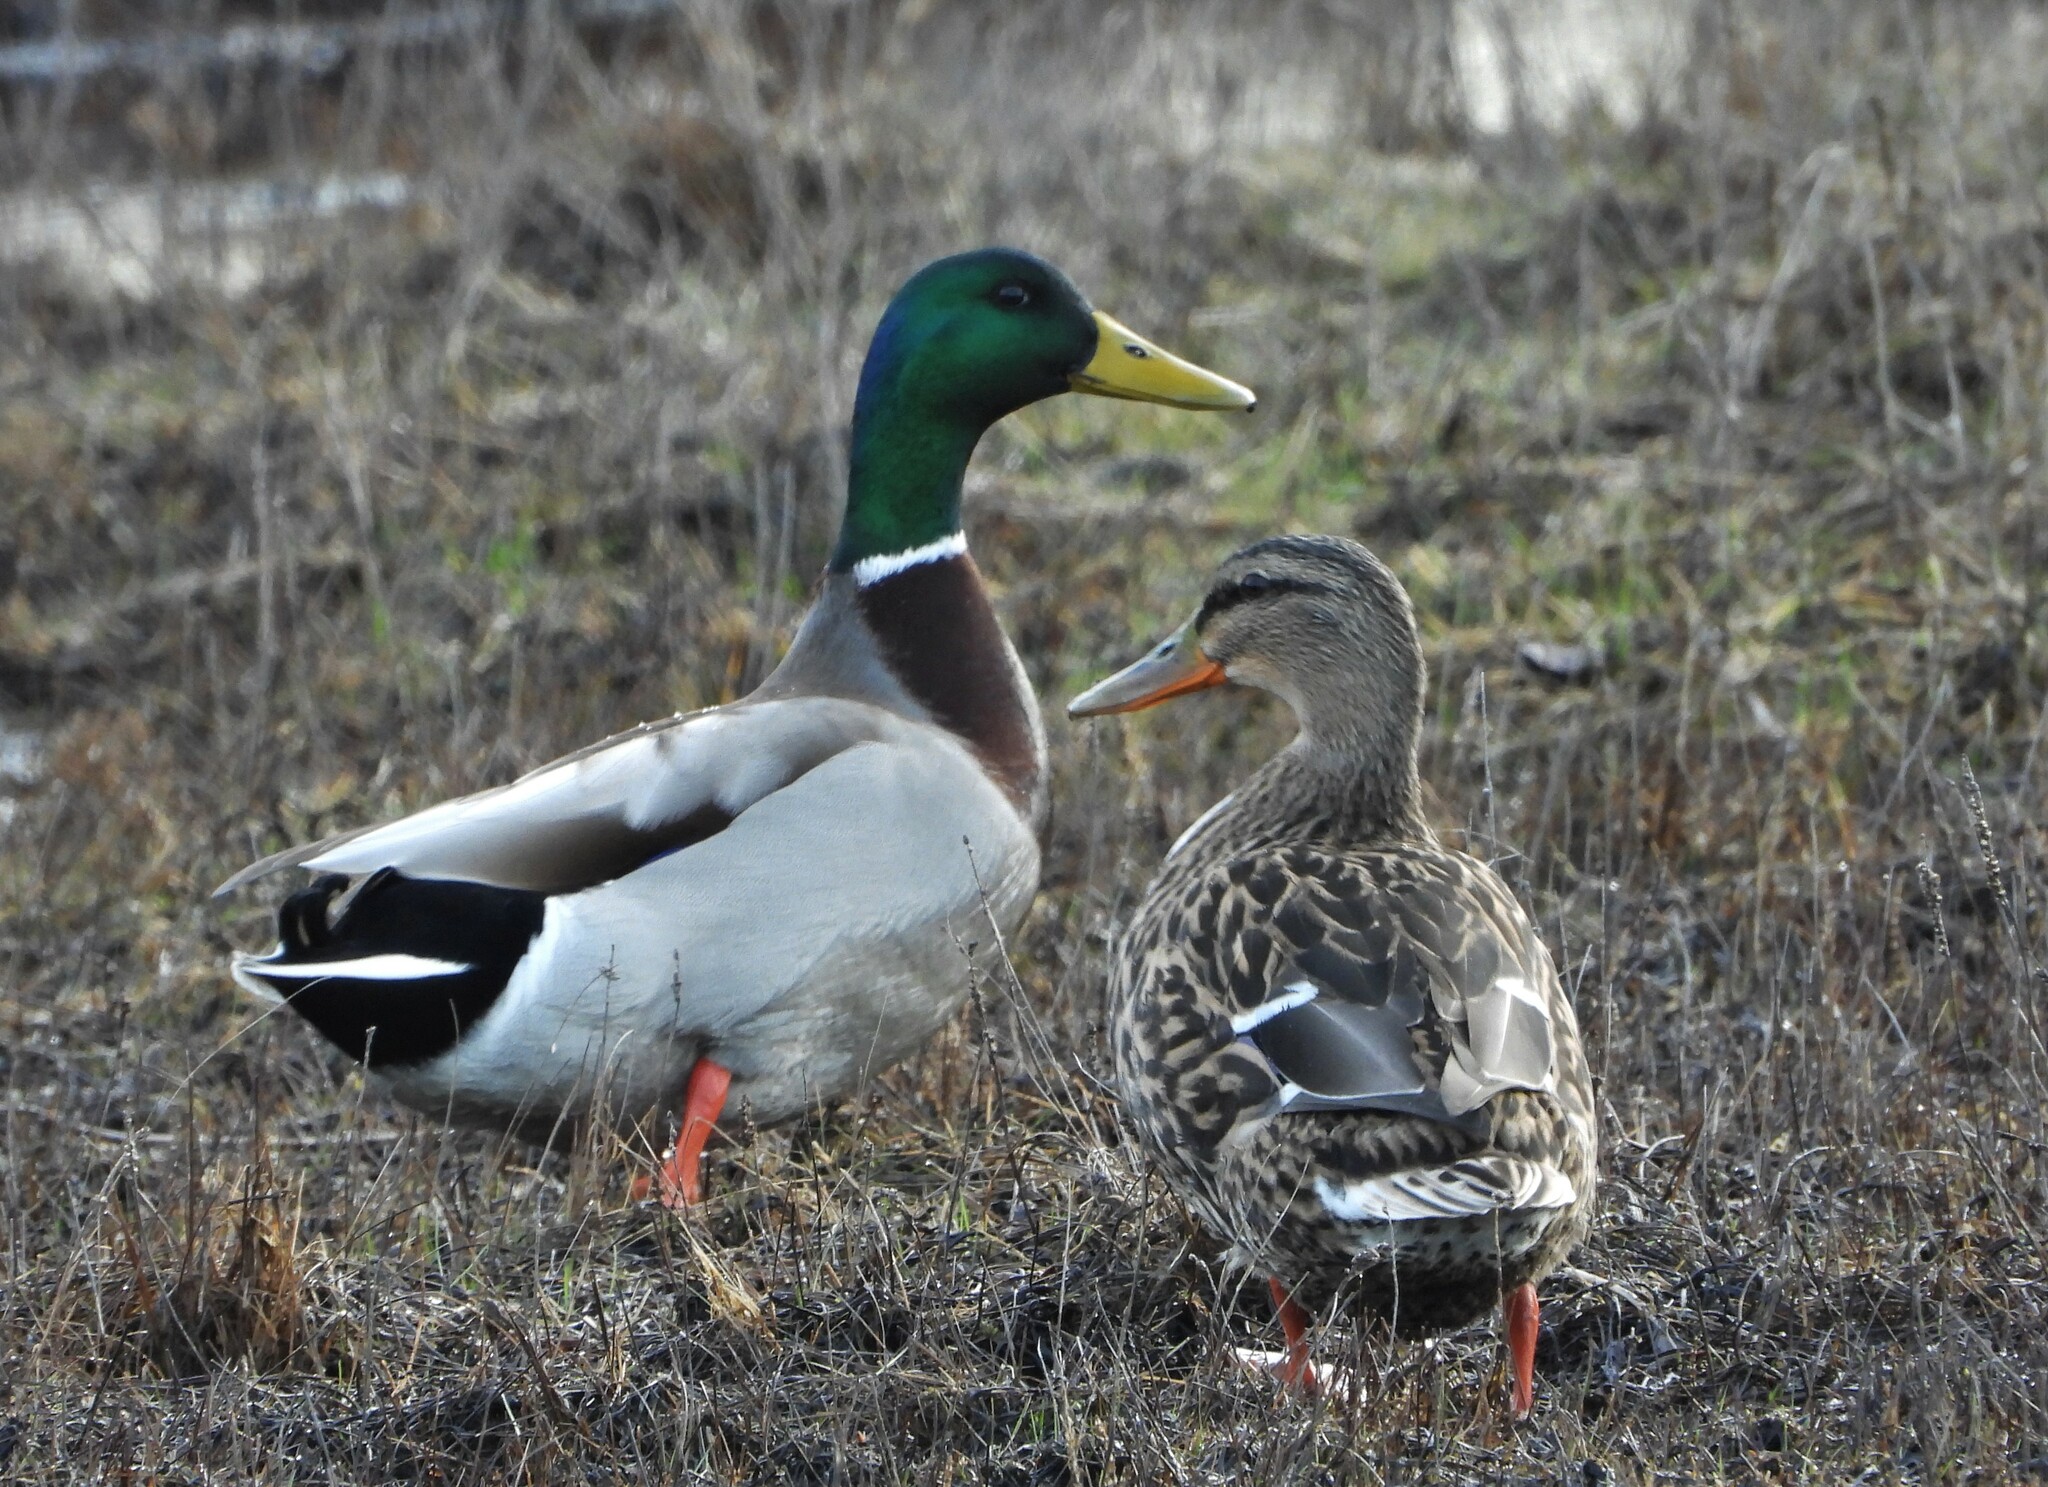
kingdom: Animalia
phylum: Chordata
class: Aves
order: Anseriformes
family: Anatidae
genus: Anas
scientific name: Anas platyrhynchos
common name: Mallard
